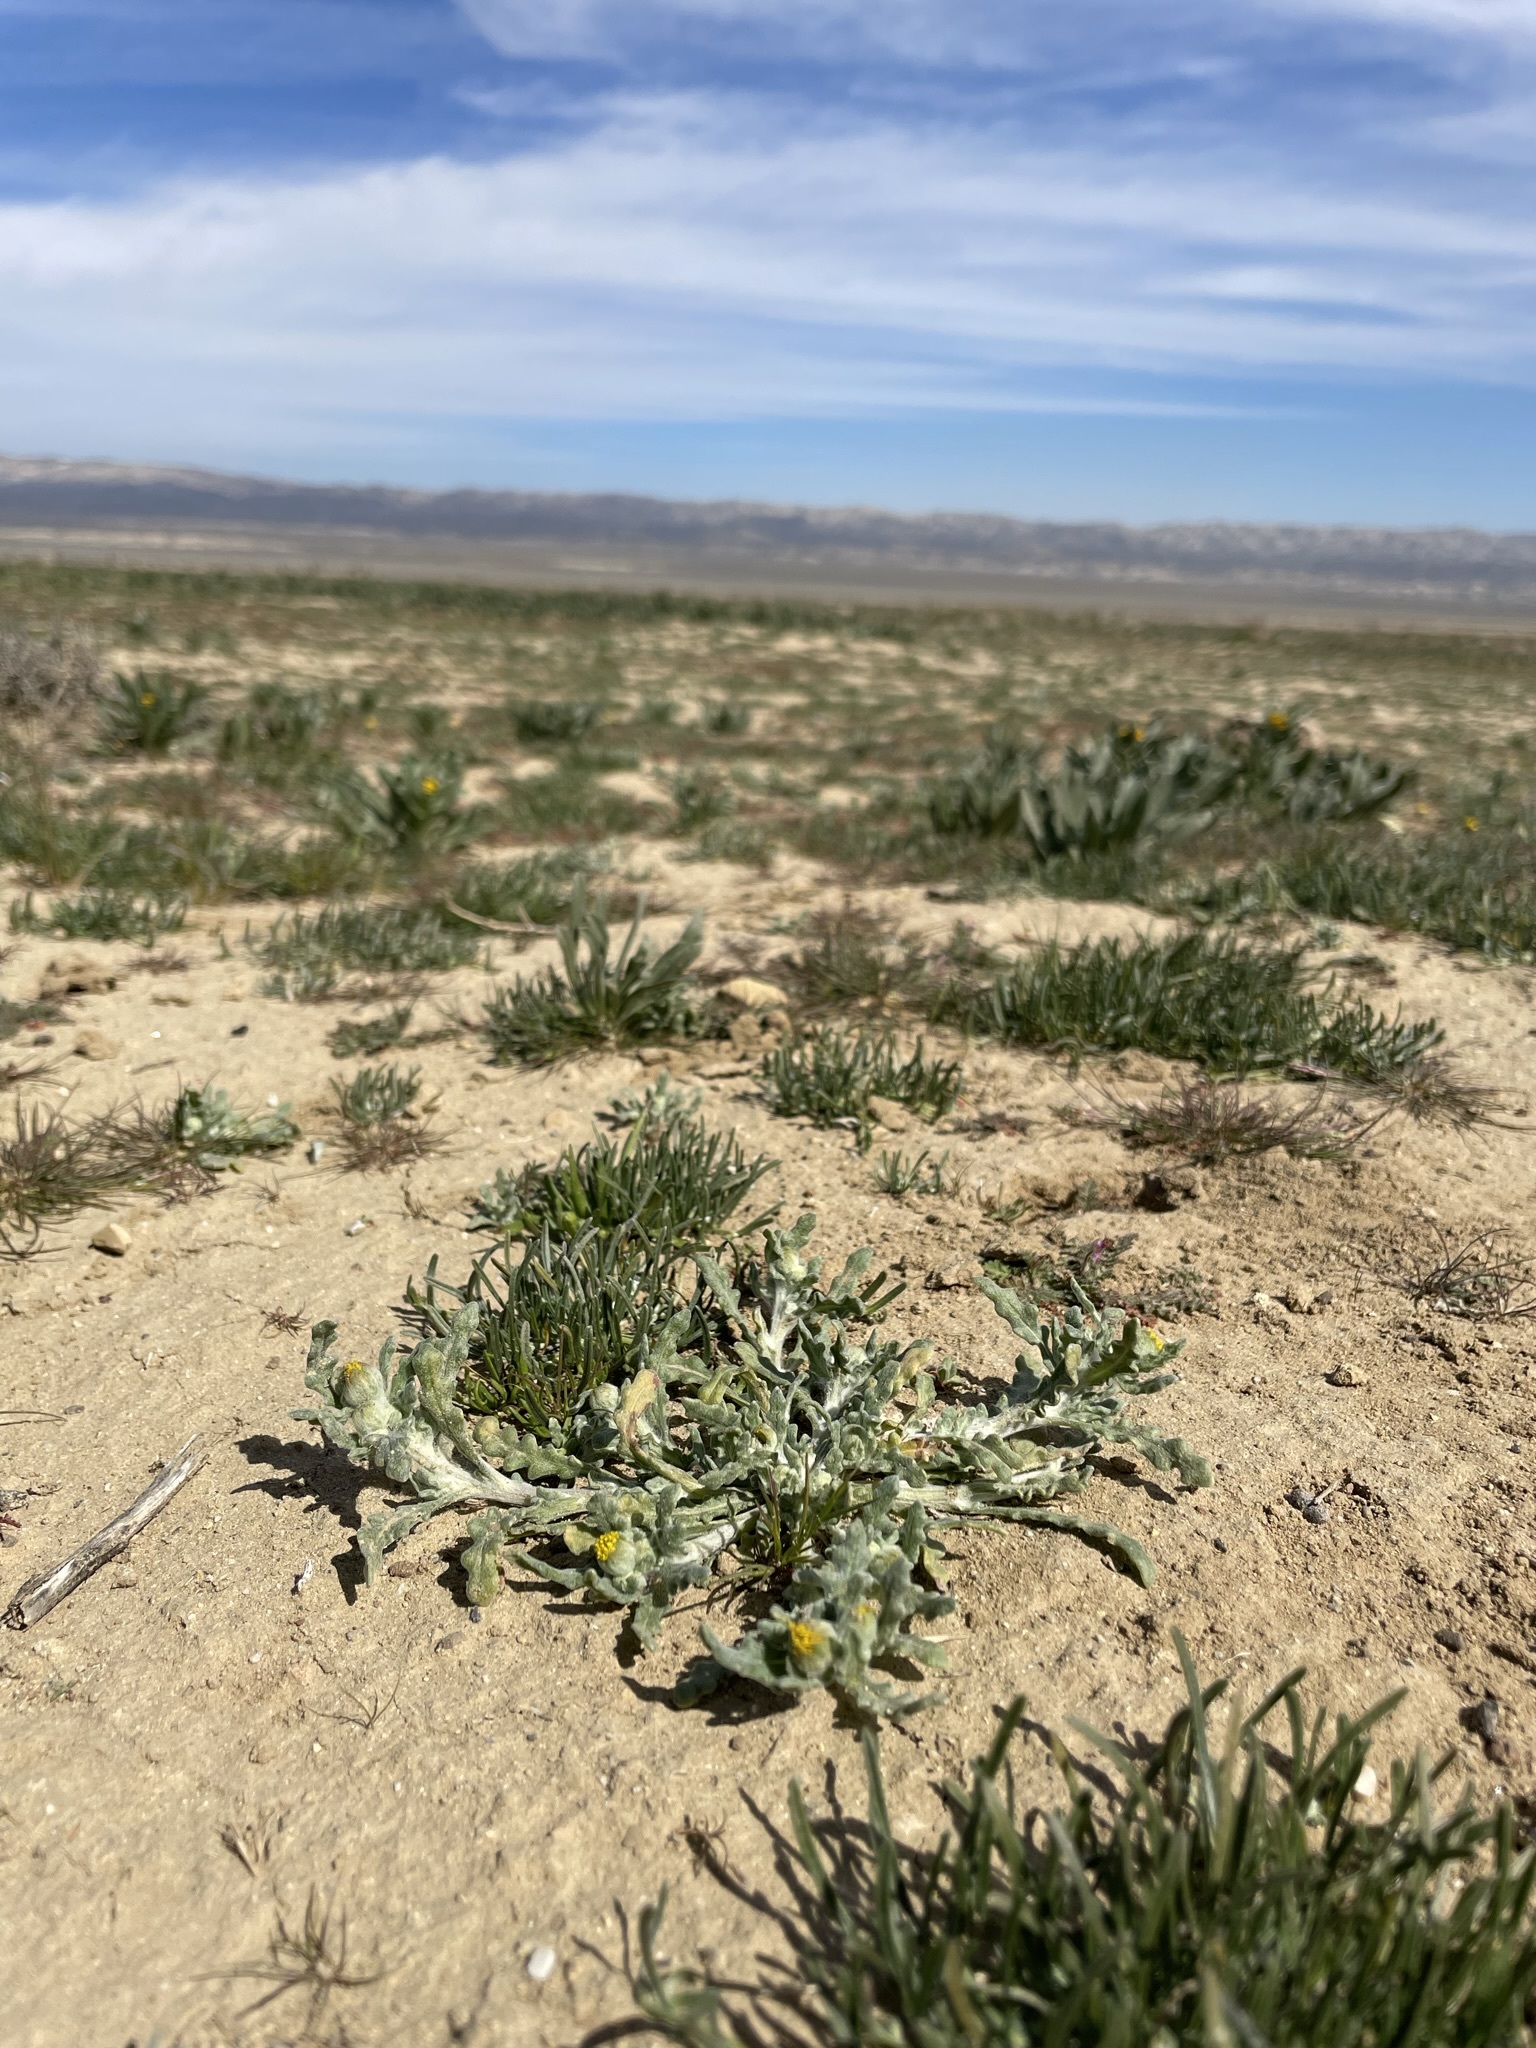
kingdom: Plantae
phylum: Tracheophyta
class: Magnoliopsida
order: Asterales
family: Asteraceae
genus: Monolopia
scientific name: Monolopia congdonii
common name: San joaquin woolly-threads
